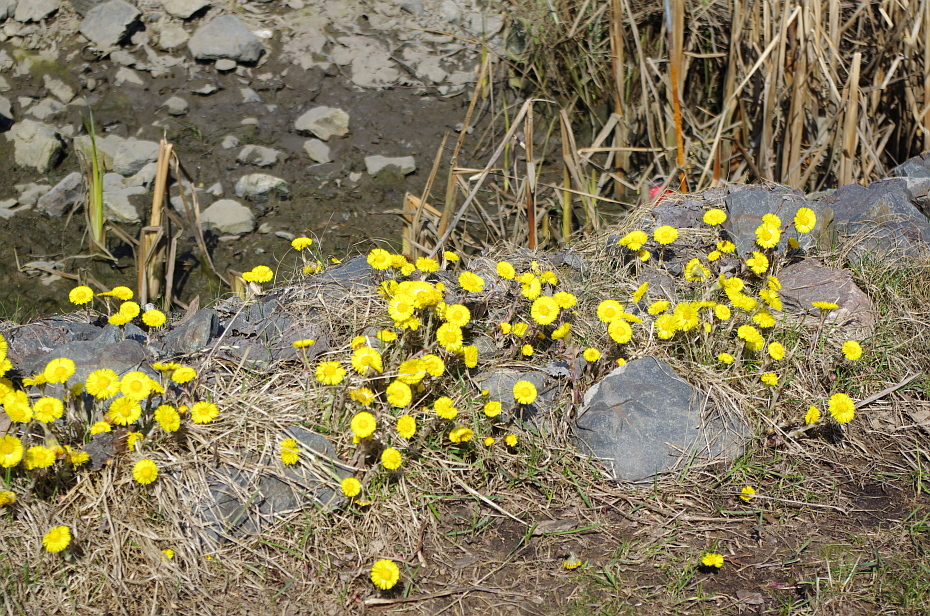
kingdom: Plantae
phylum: Tracheophyta
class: Magnoliopsida
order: Asterales
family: Asteraceae
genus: Tussilago
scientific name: Tussilago farfara
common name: Coltsfoot
